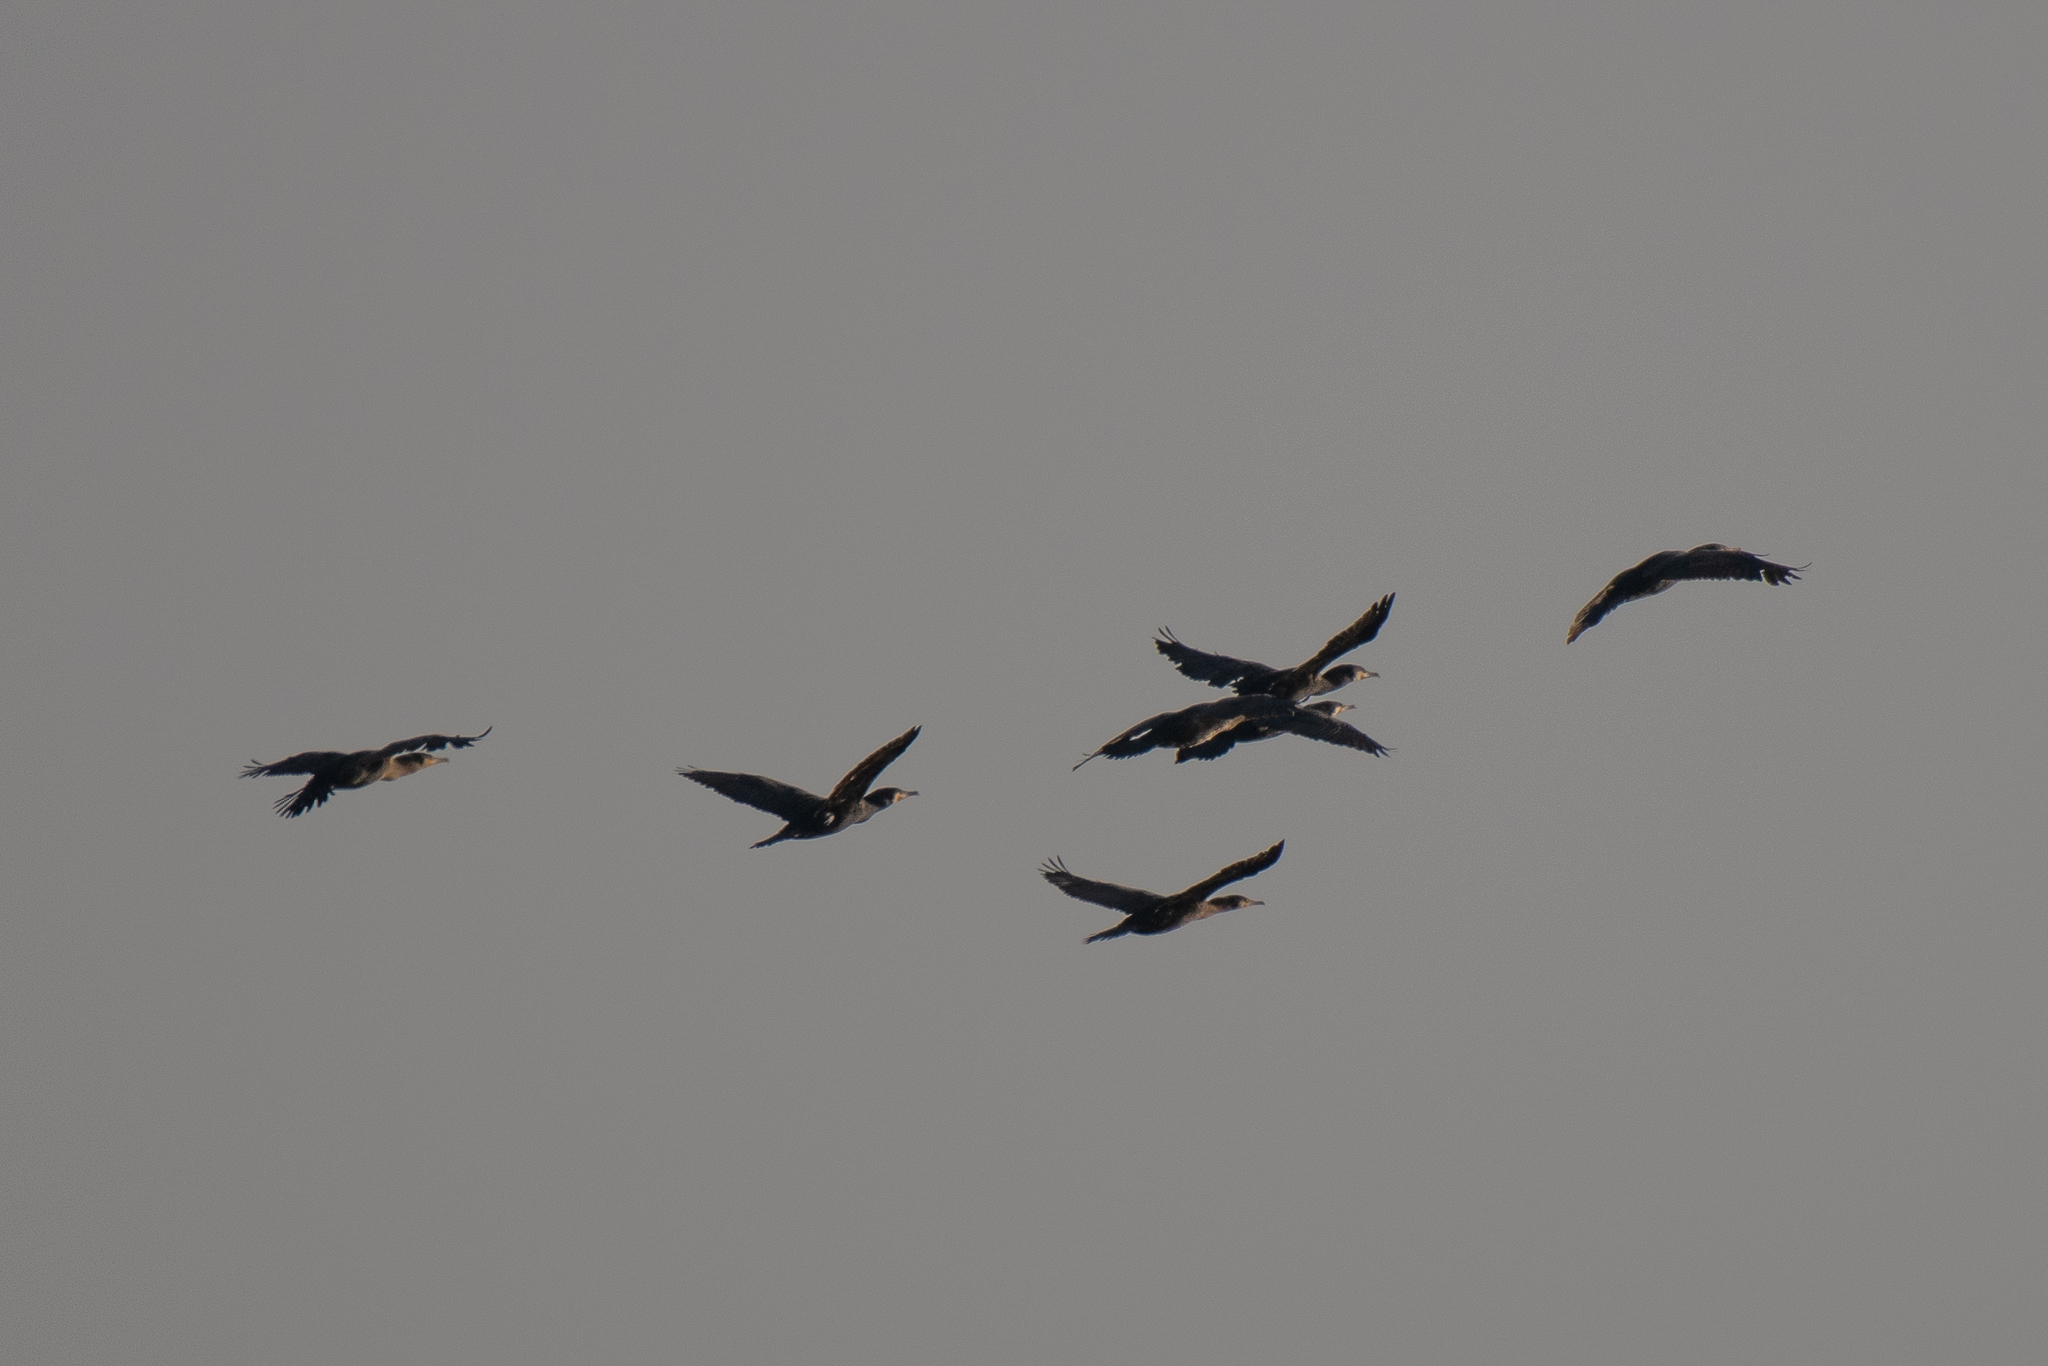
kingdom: Animalia
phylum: Chordata
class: Aves
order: Suliformes
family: Phalacrocoracidae
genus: Phalacrocorax
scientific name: Phalacrocorax carbo
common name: Great cormorant
